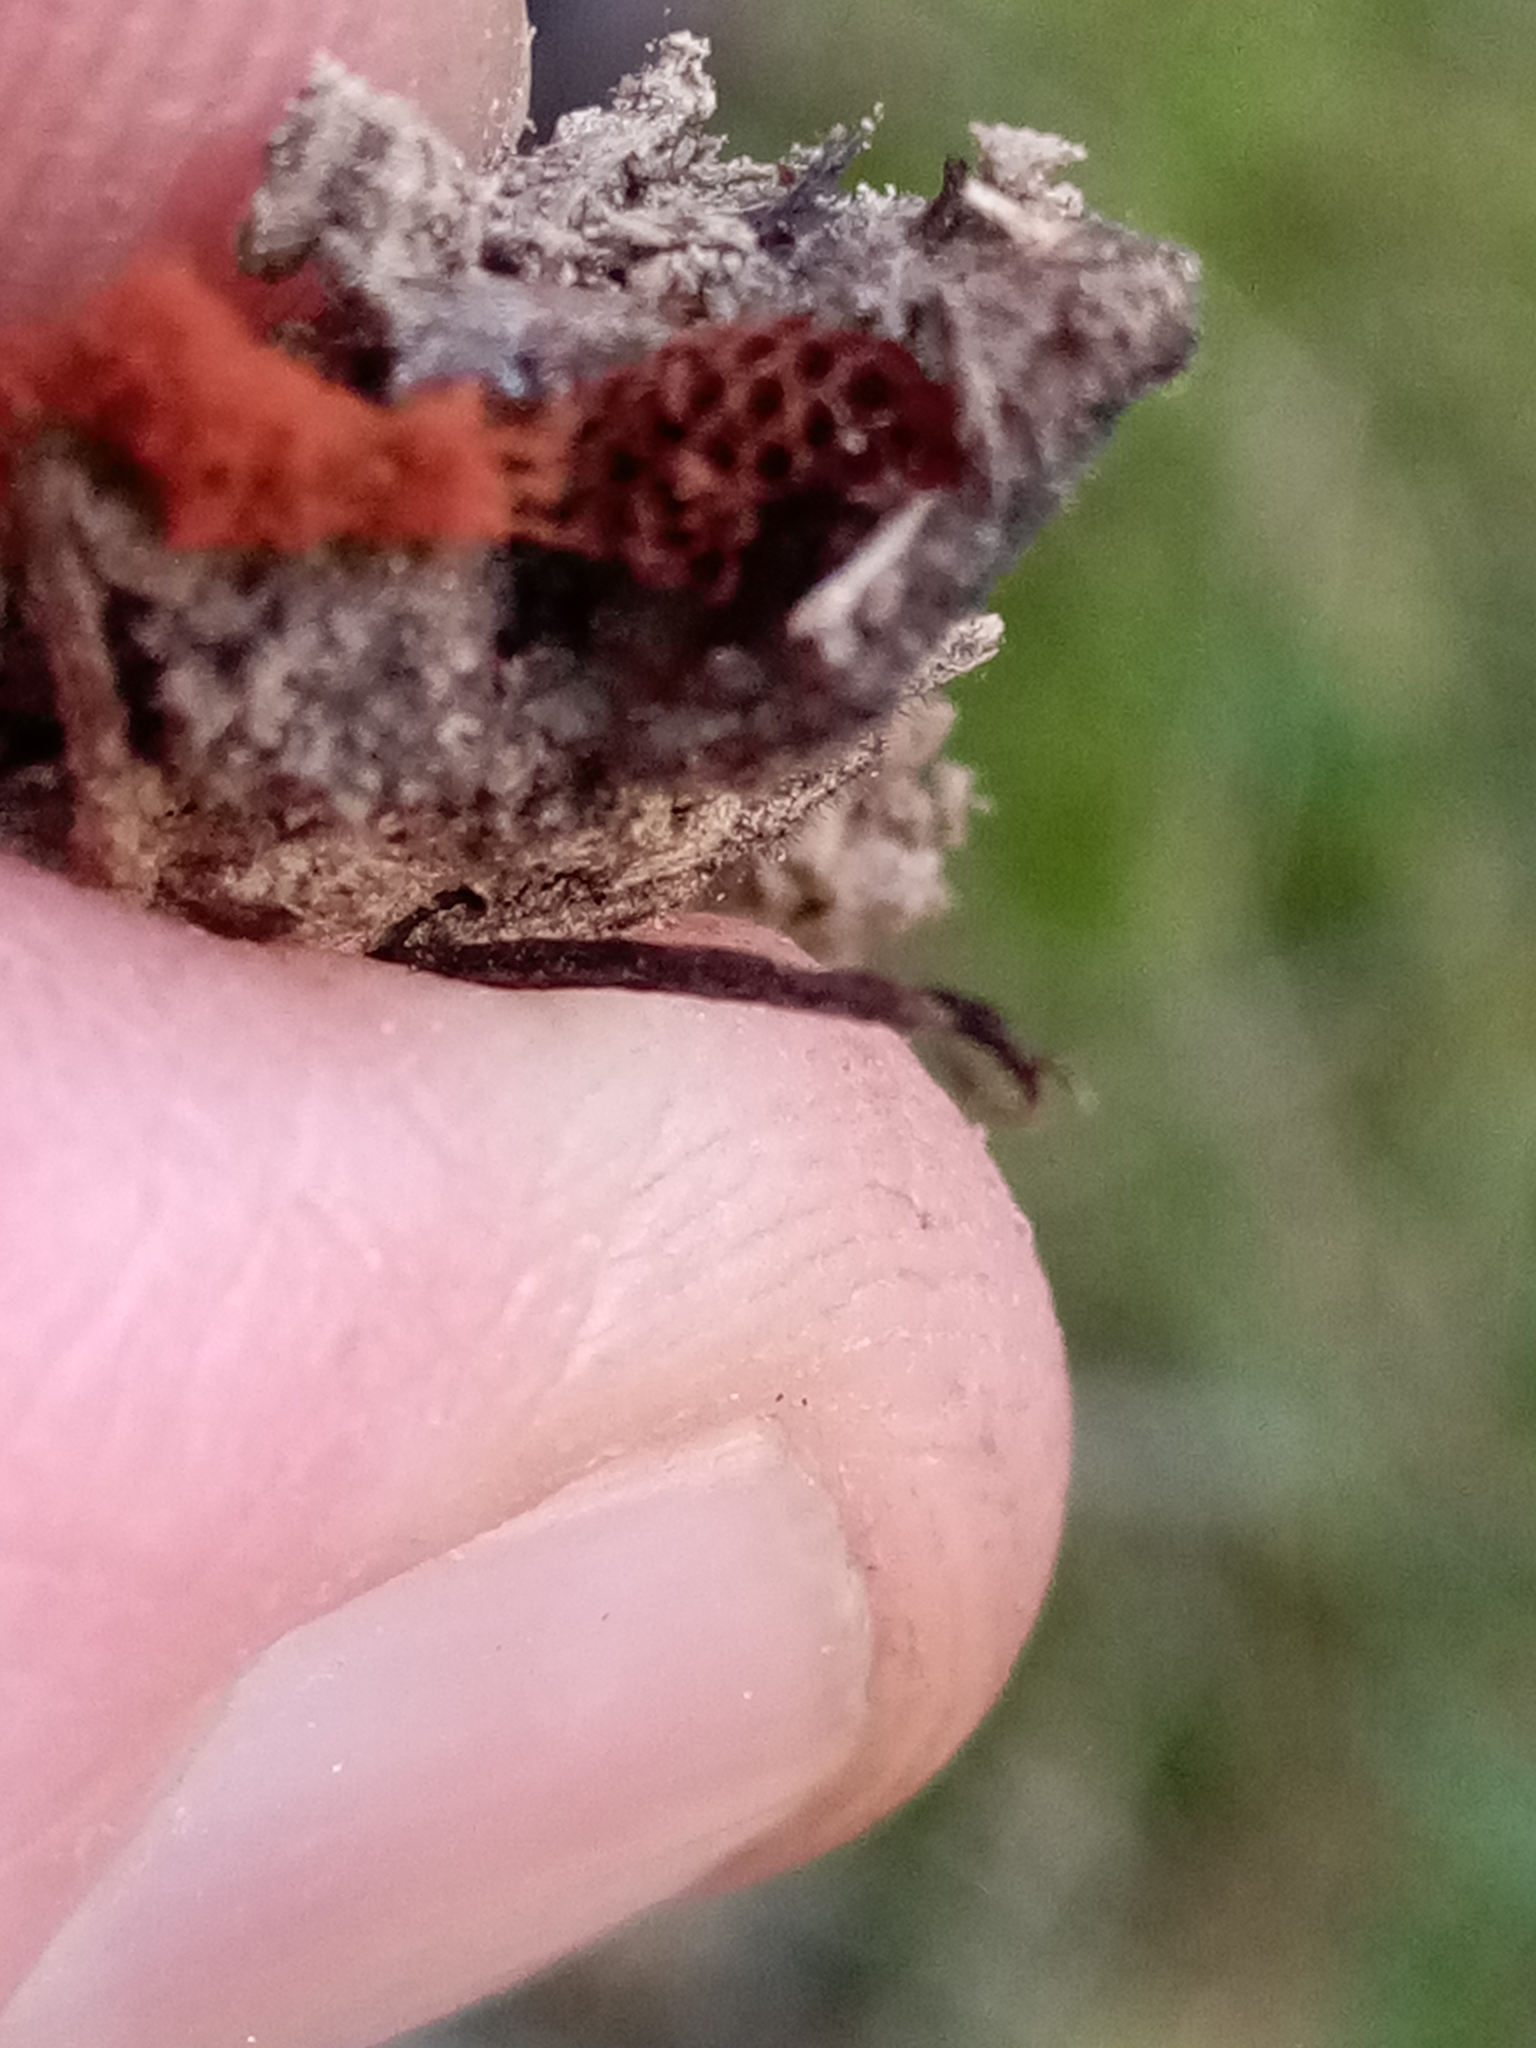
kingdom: Protozoa
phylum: Mycetozoa
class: Myxomycetes
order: Trichiales
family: Trichiaceae
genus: Metatrichia
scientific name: Metatrichia vesparia
